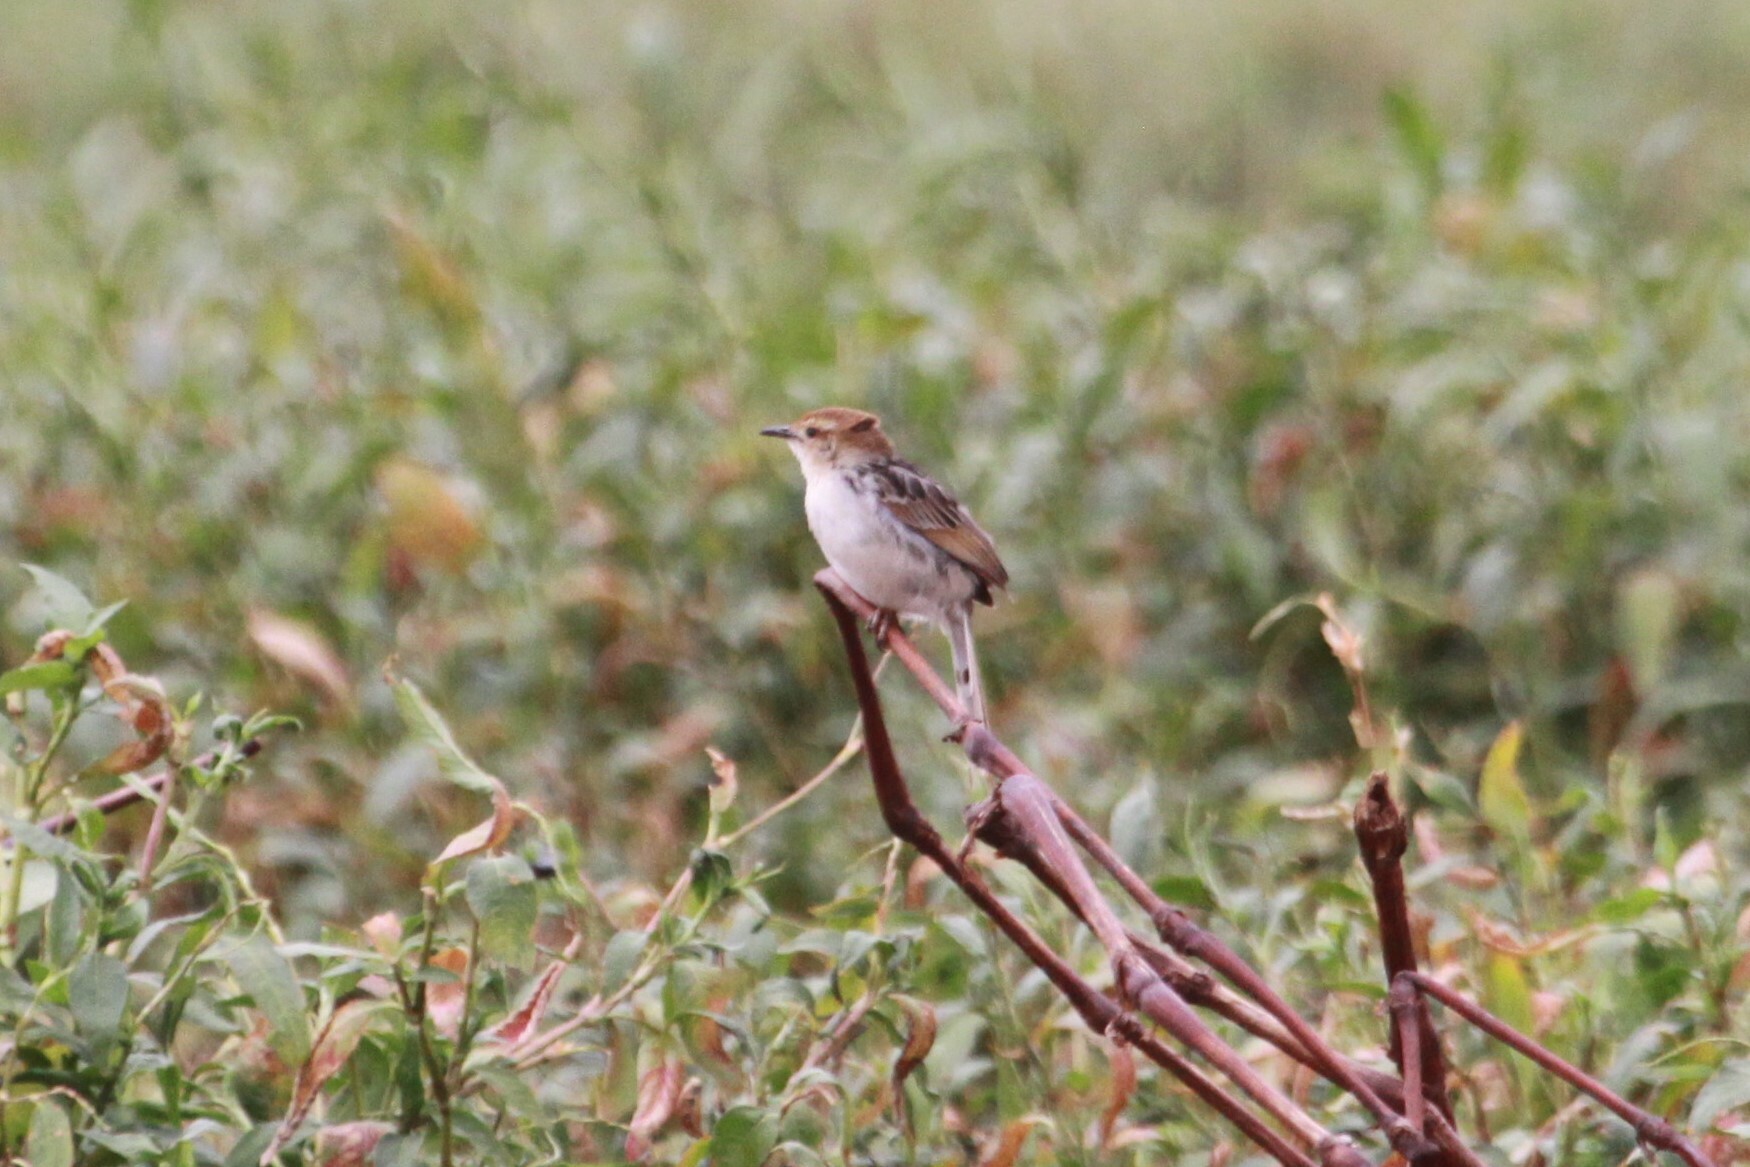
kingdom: Animalia
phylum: Chordata
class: Aves
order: Passeriformes
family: Cisticolidae
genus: Cisticola
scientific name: Cisticola tinniens
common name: Levaillant's cisticola
